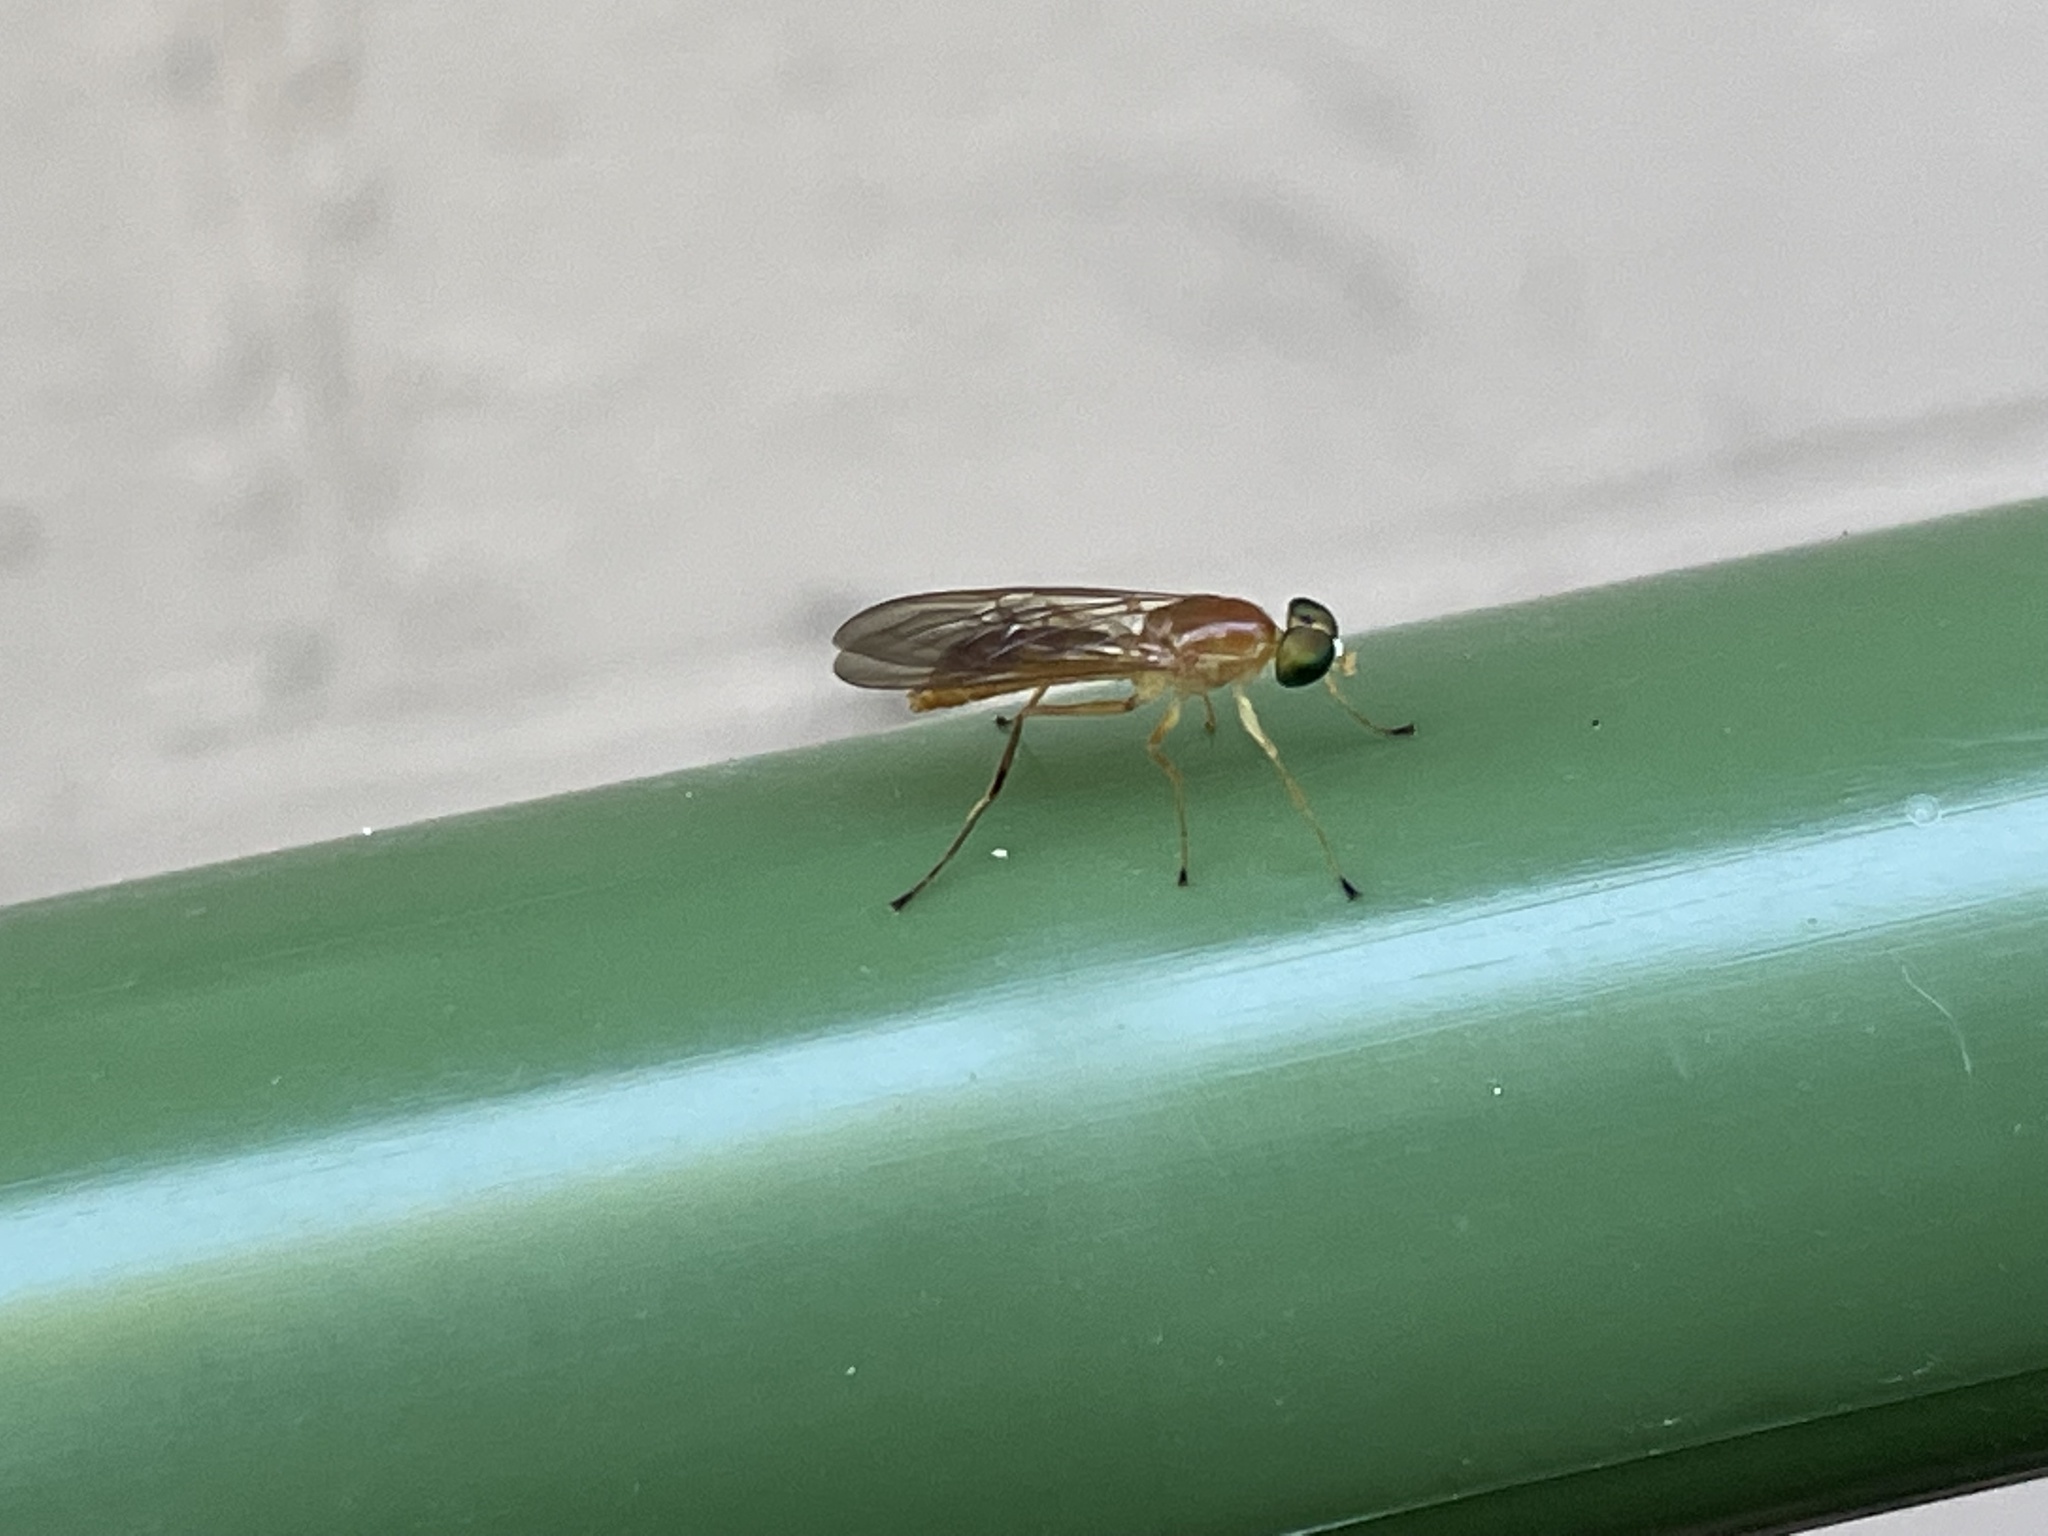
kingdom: Animalia
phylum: Arthropoda
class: Insecta
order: Diptera
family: Stratiomyidae
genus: Ptecticus
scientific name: Ptecticus trivittatus
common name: Compost fly
